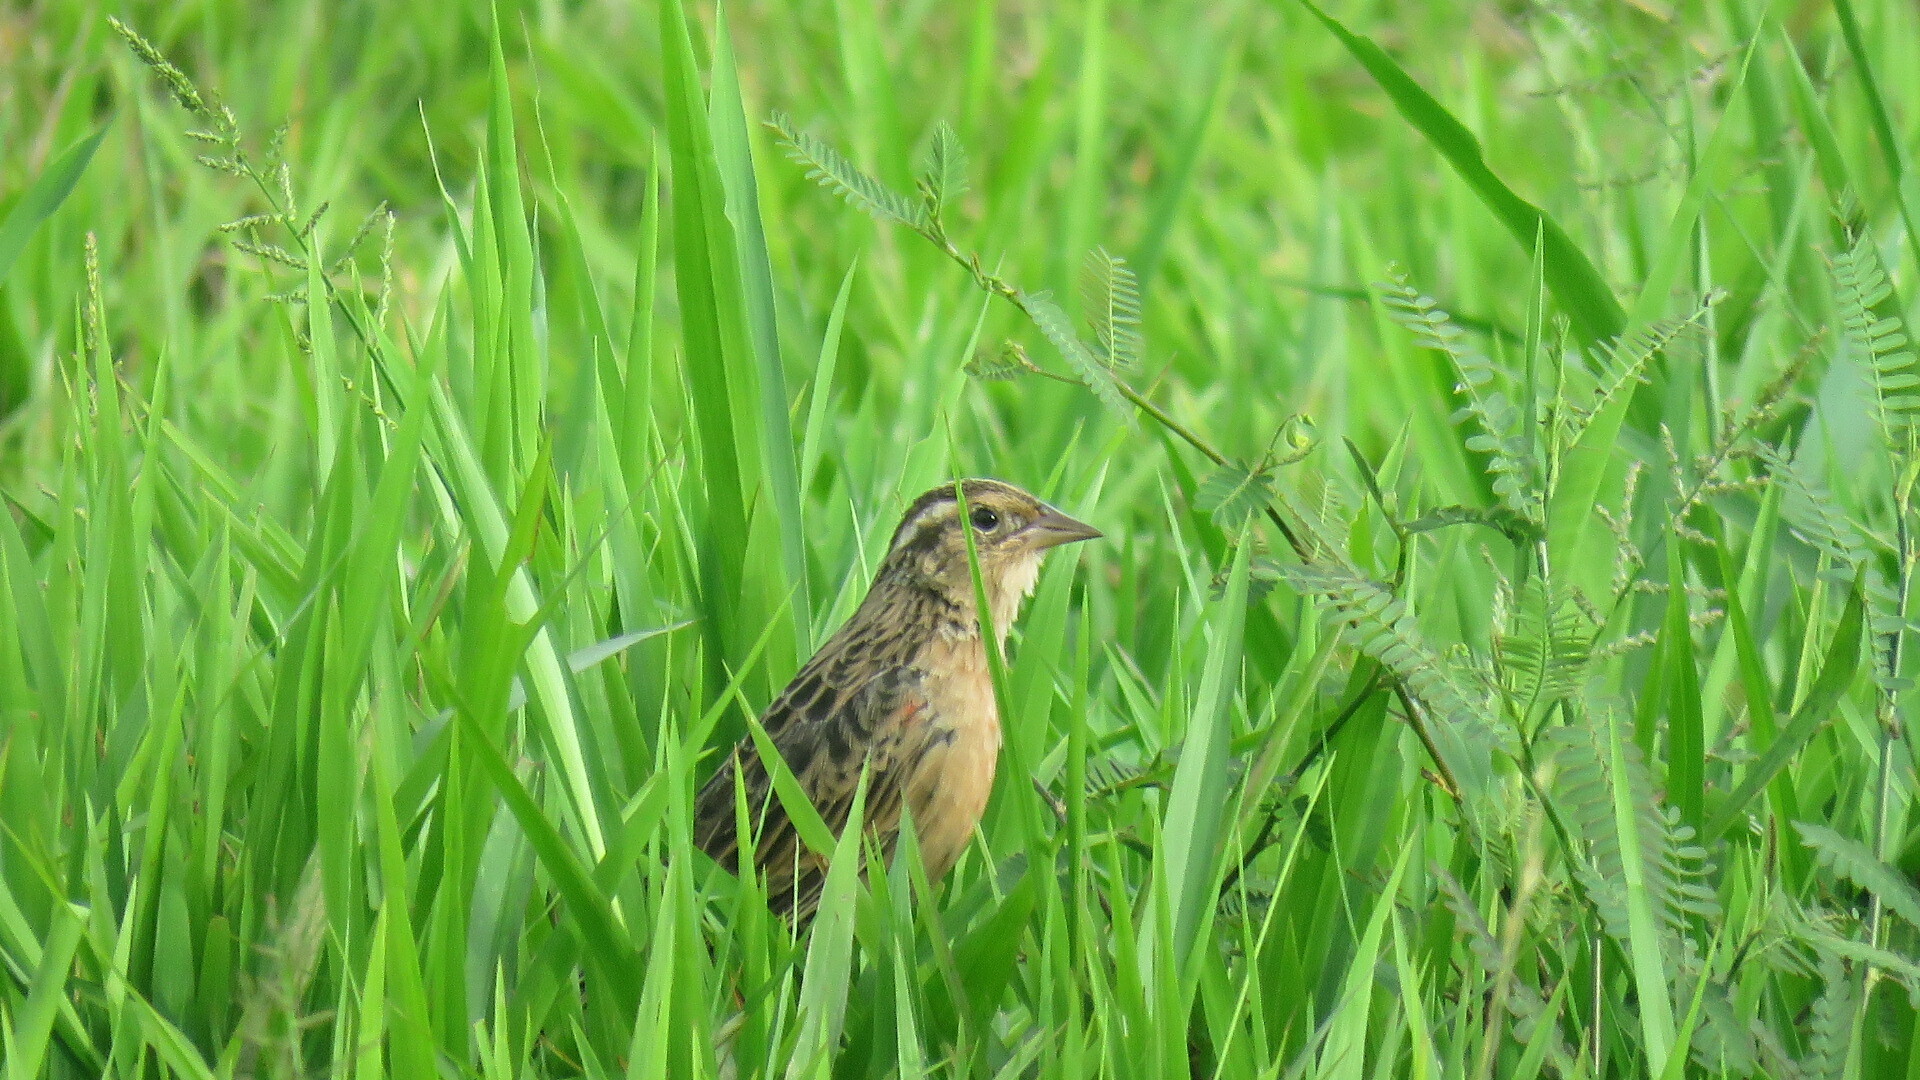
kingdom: Animalia
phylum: Chordata
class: Aves
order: Passeriformes
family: Icteridae
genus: Sturnella
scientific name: Sturnella militaris
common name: Red-breasted blackbird
